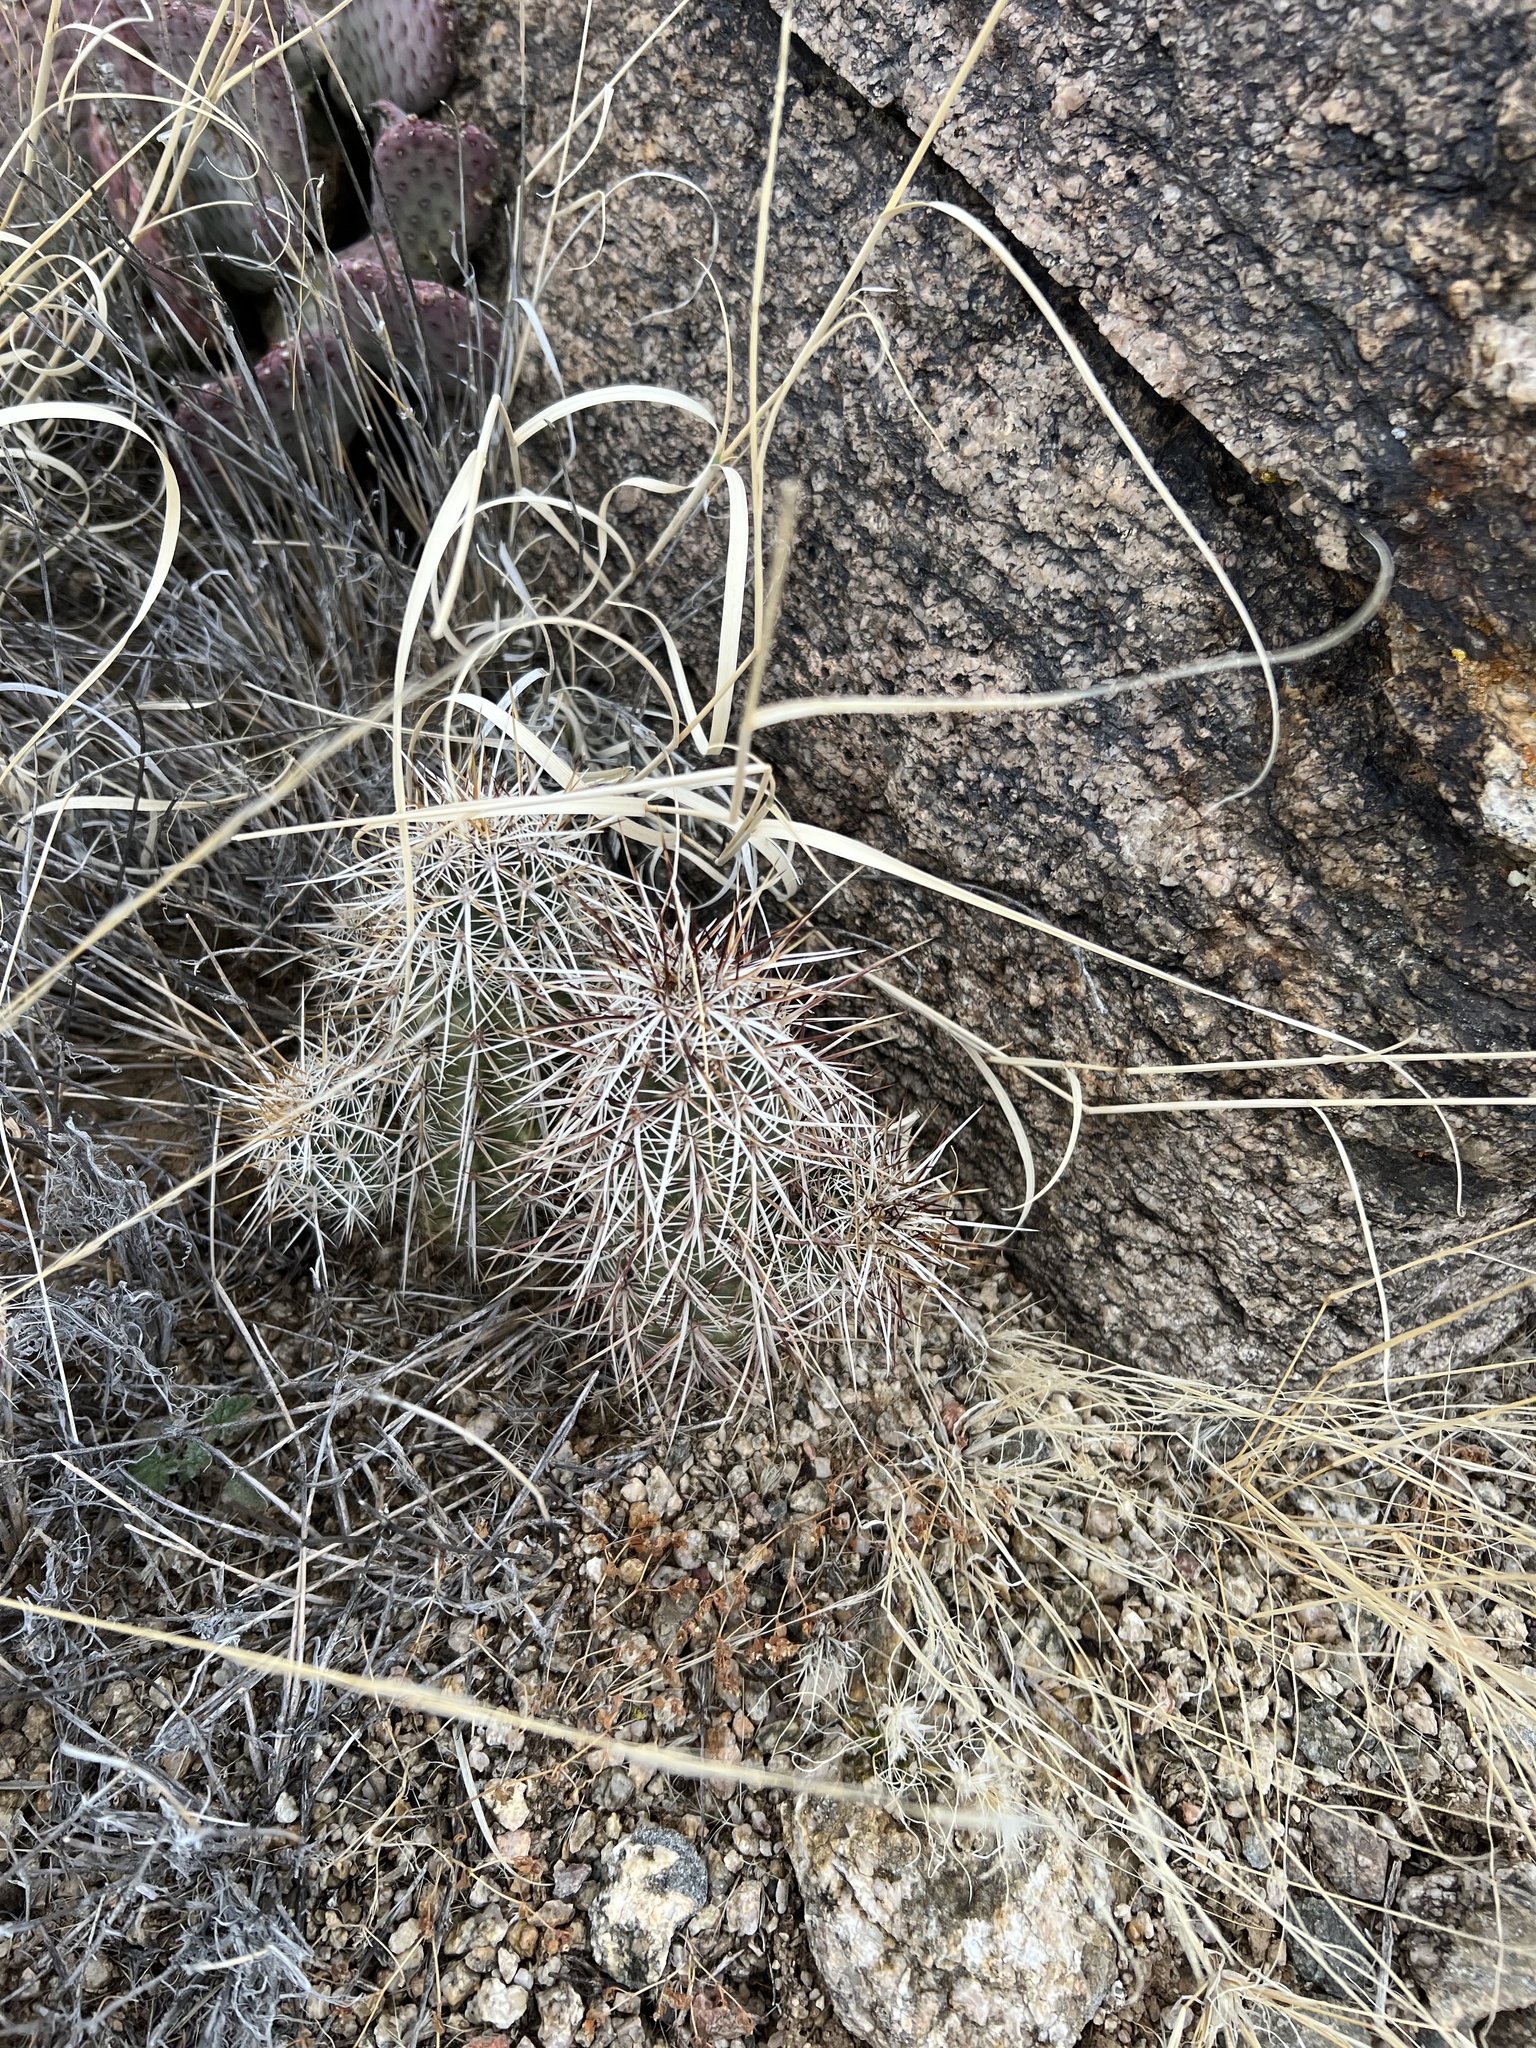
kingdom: Plantae
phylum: Tracheophyta
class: Magnoliopsida
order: Caryophyllales
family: Cactaceae
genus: Echinocereus
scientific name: Echinocereus engelmannii
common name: Engelmann's hedgehog cactus
